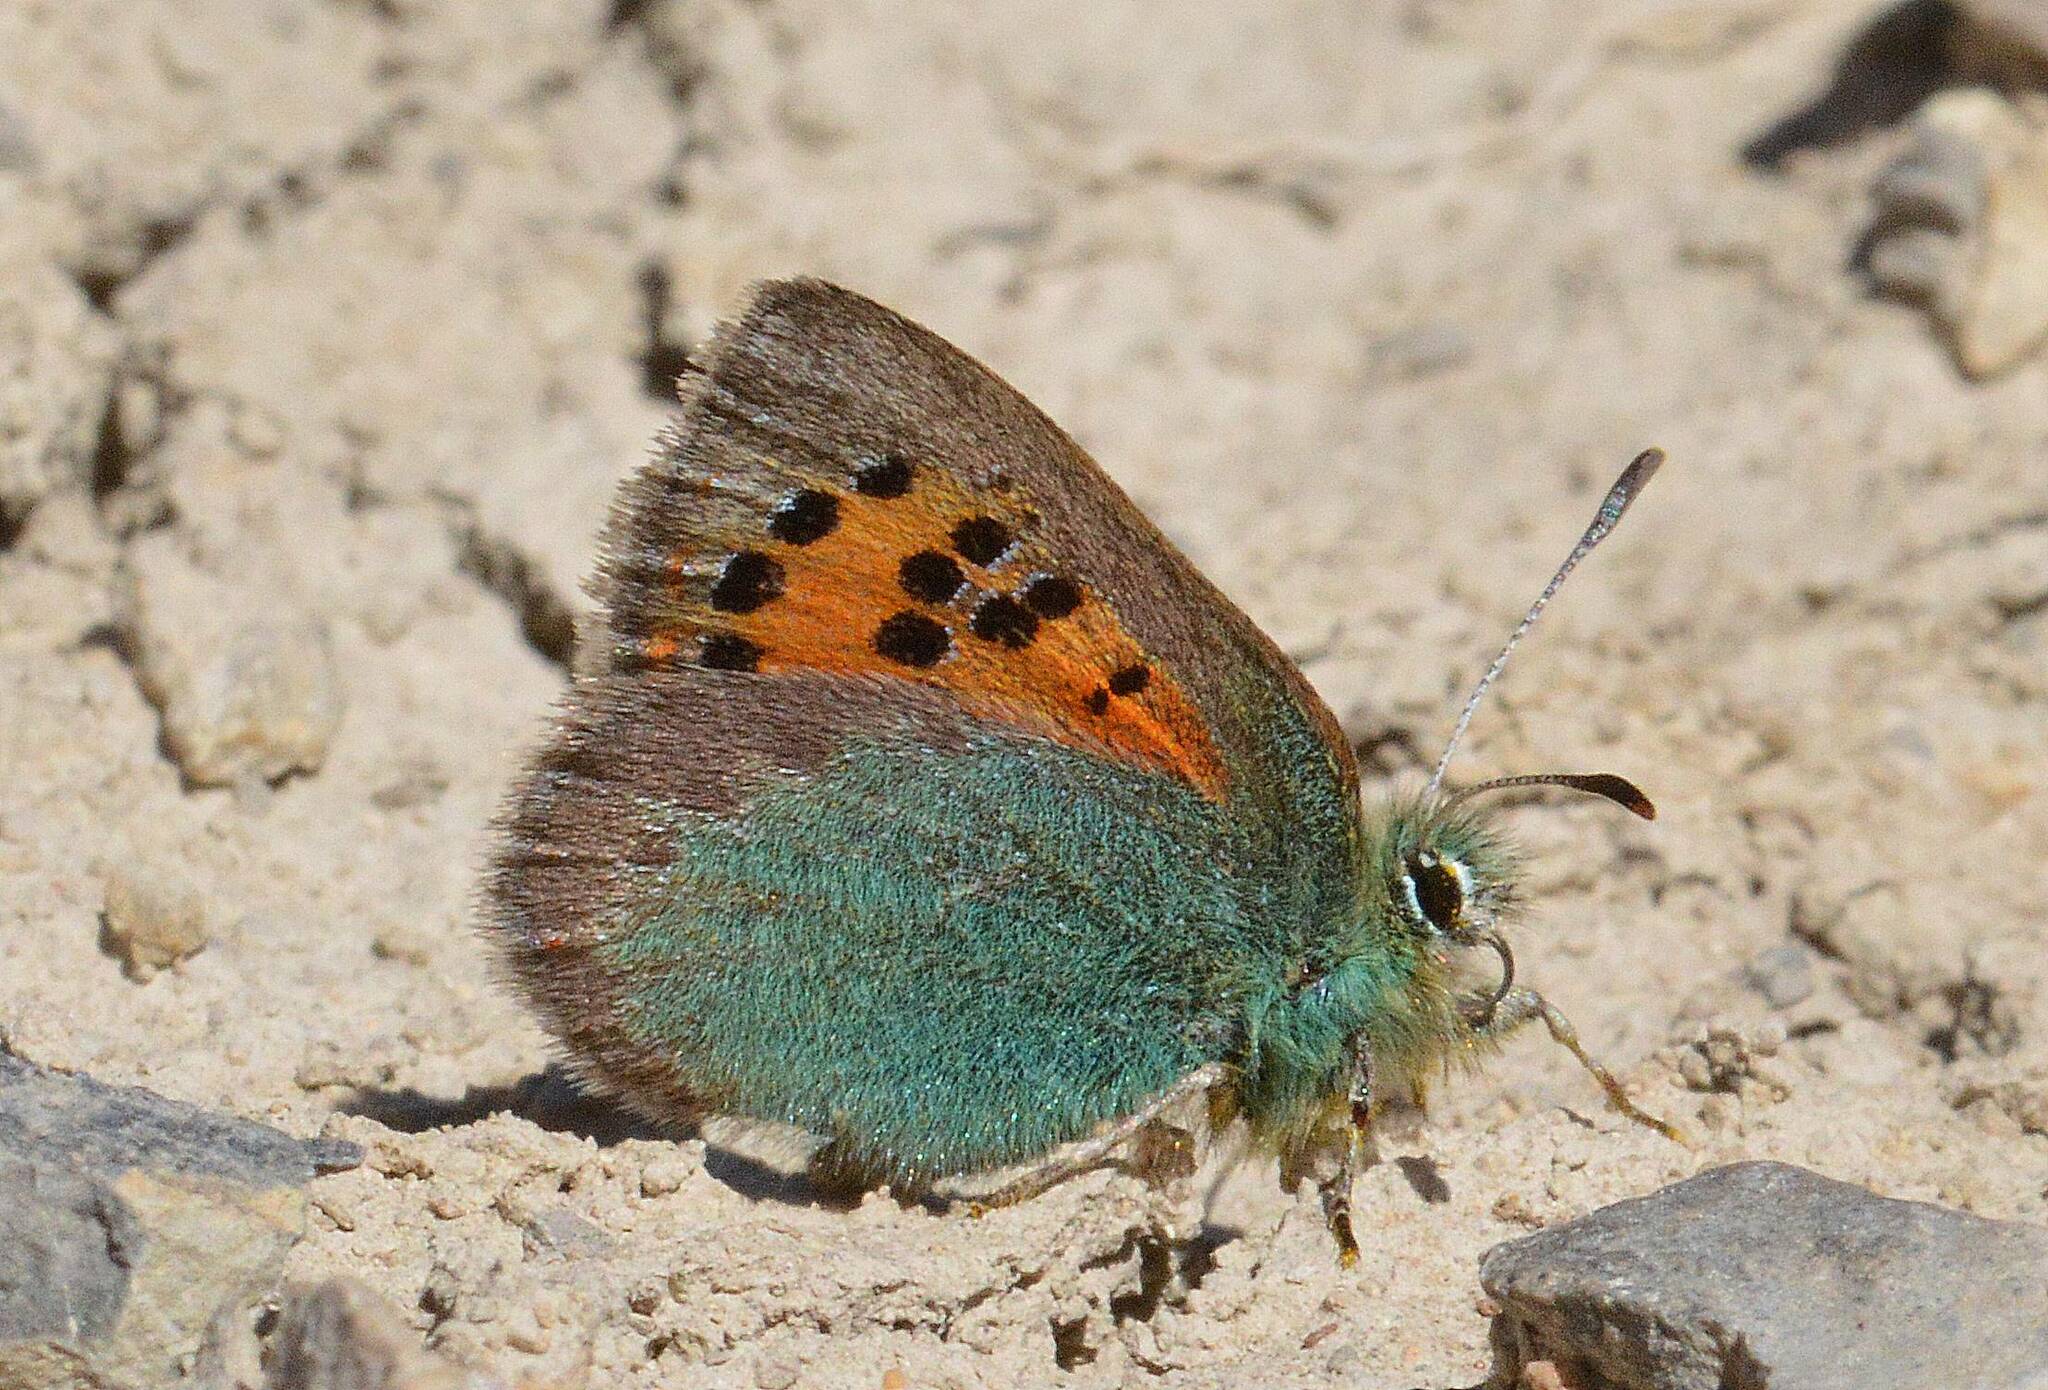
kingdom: Animalia
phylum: Arthropoda
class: Insecta
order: Lepidoptera
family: Lycaenidae
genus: Tomares
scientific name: Tomares ballus
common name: Provence hairstreak
